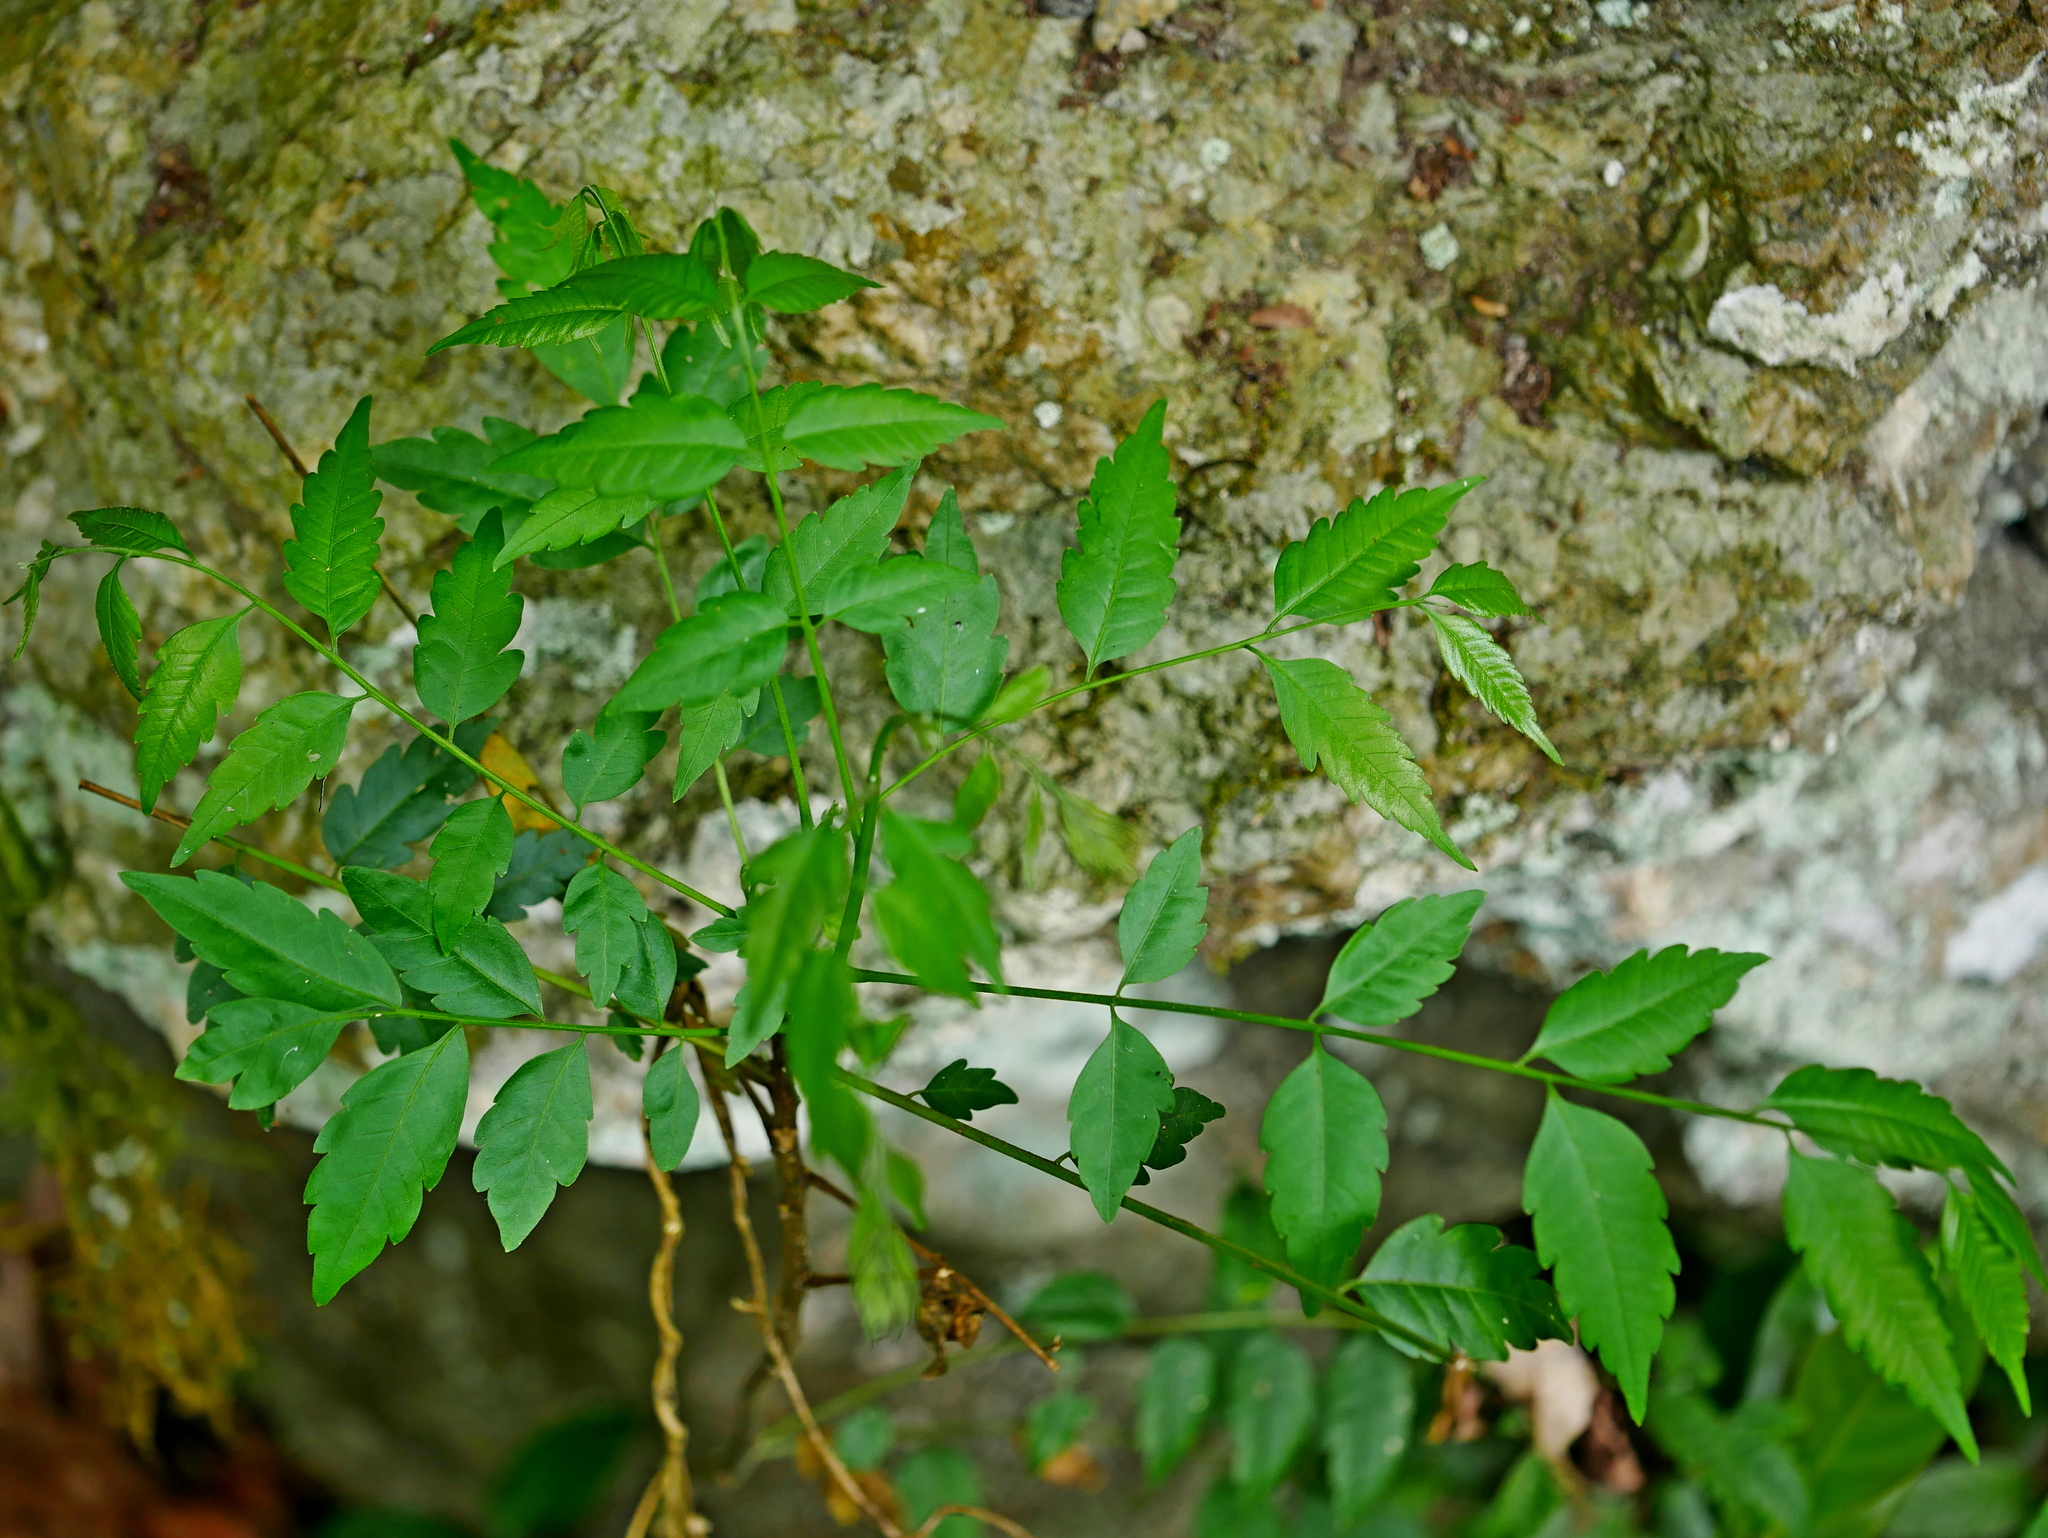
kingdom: Plantae
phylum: Tracheophyta
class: Magnoliopsida
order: Sapindales
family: Sapindaceae
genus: Eurycorymbus
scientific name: Eurycorymbus cavaleriei
